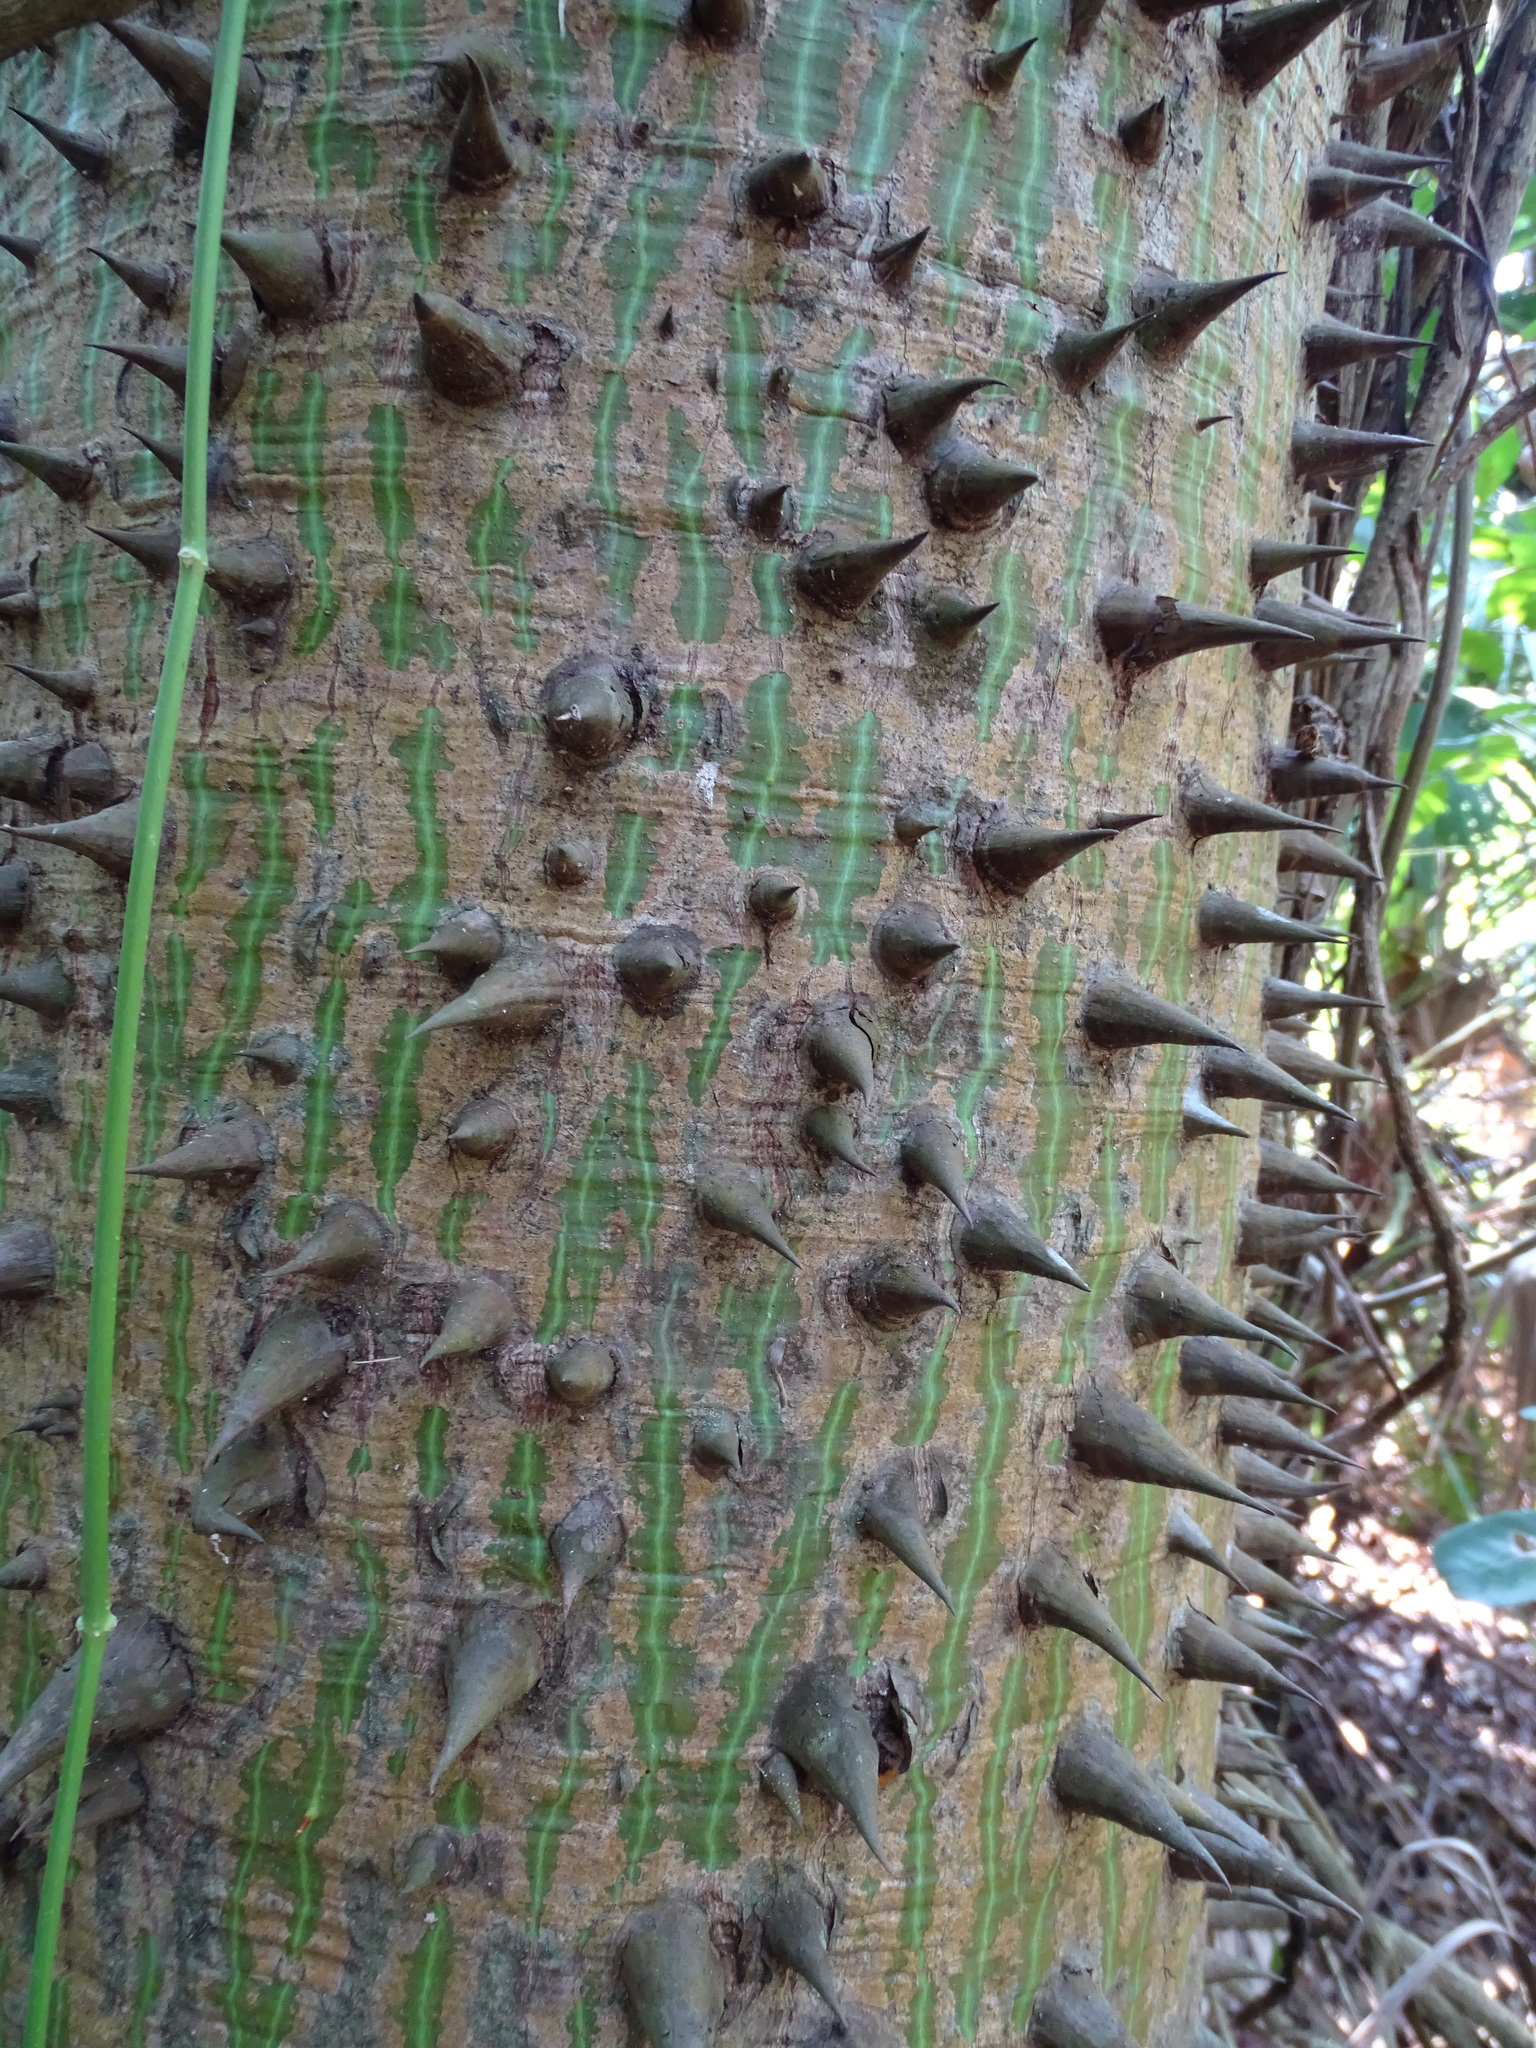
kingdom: Plantae
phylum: Tracheophyta
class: Magnoliopsida
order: Malvales
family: Malvaceae
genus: Ceiba
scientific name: Ceiba pentandra
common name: Kapok
